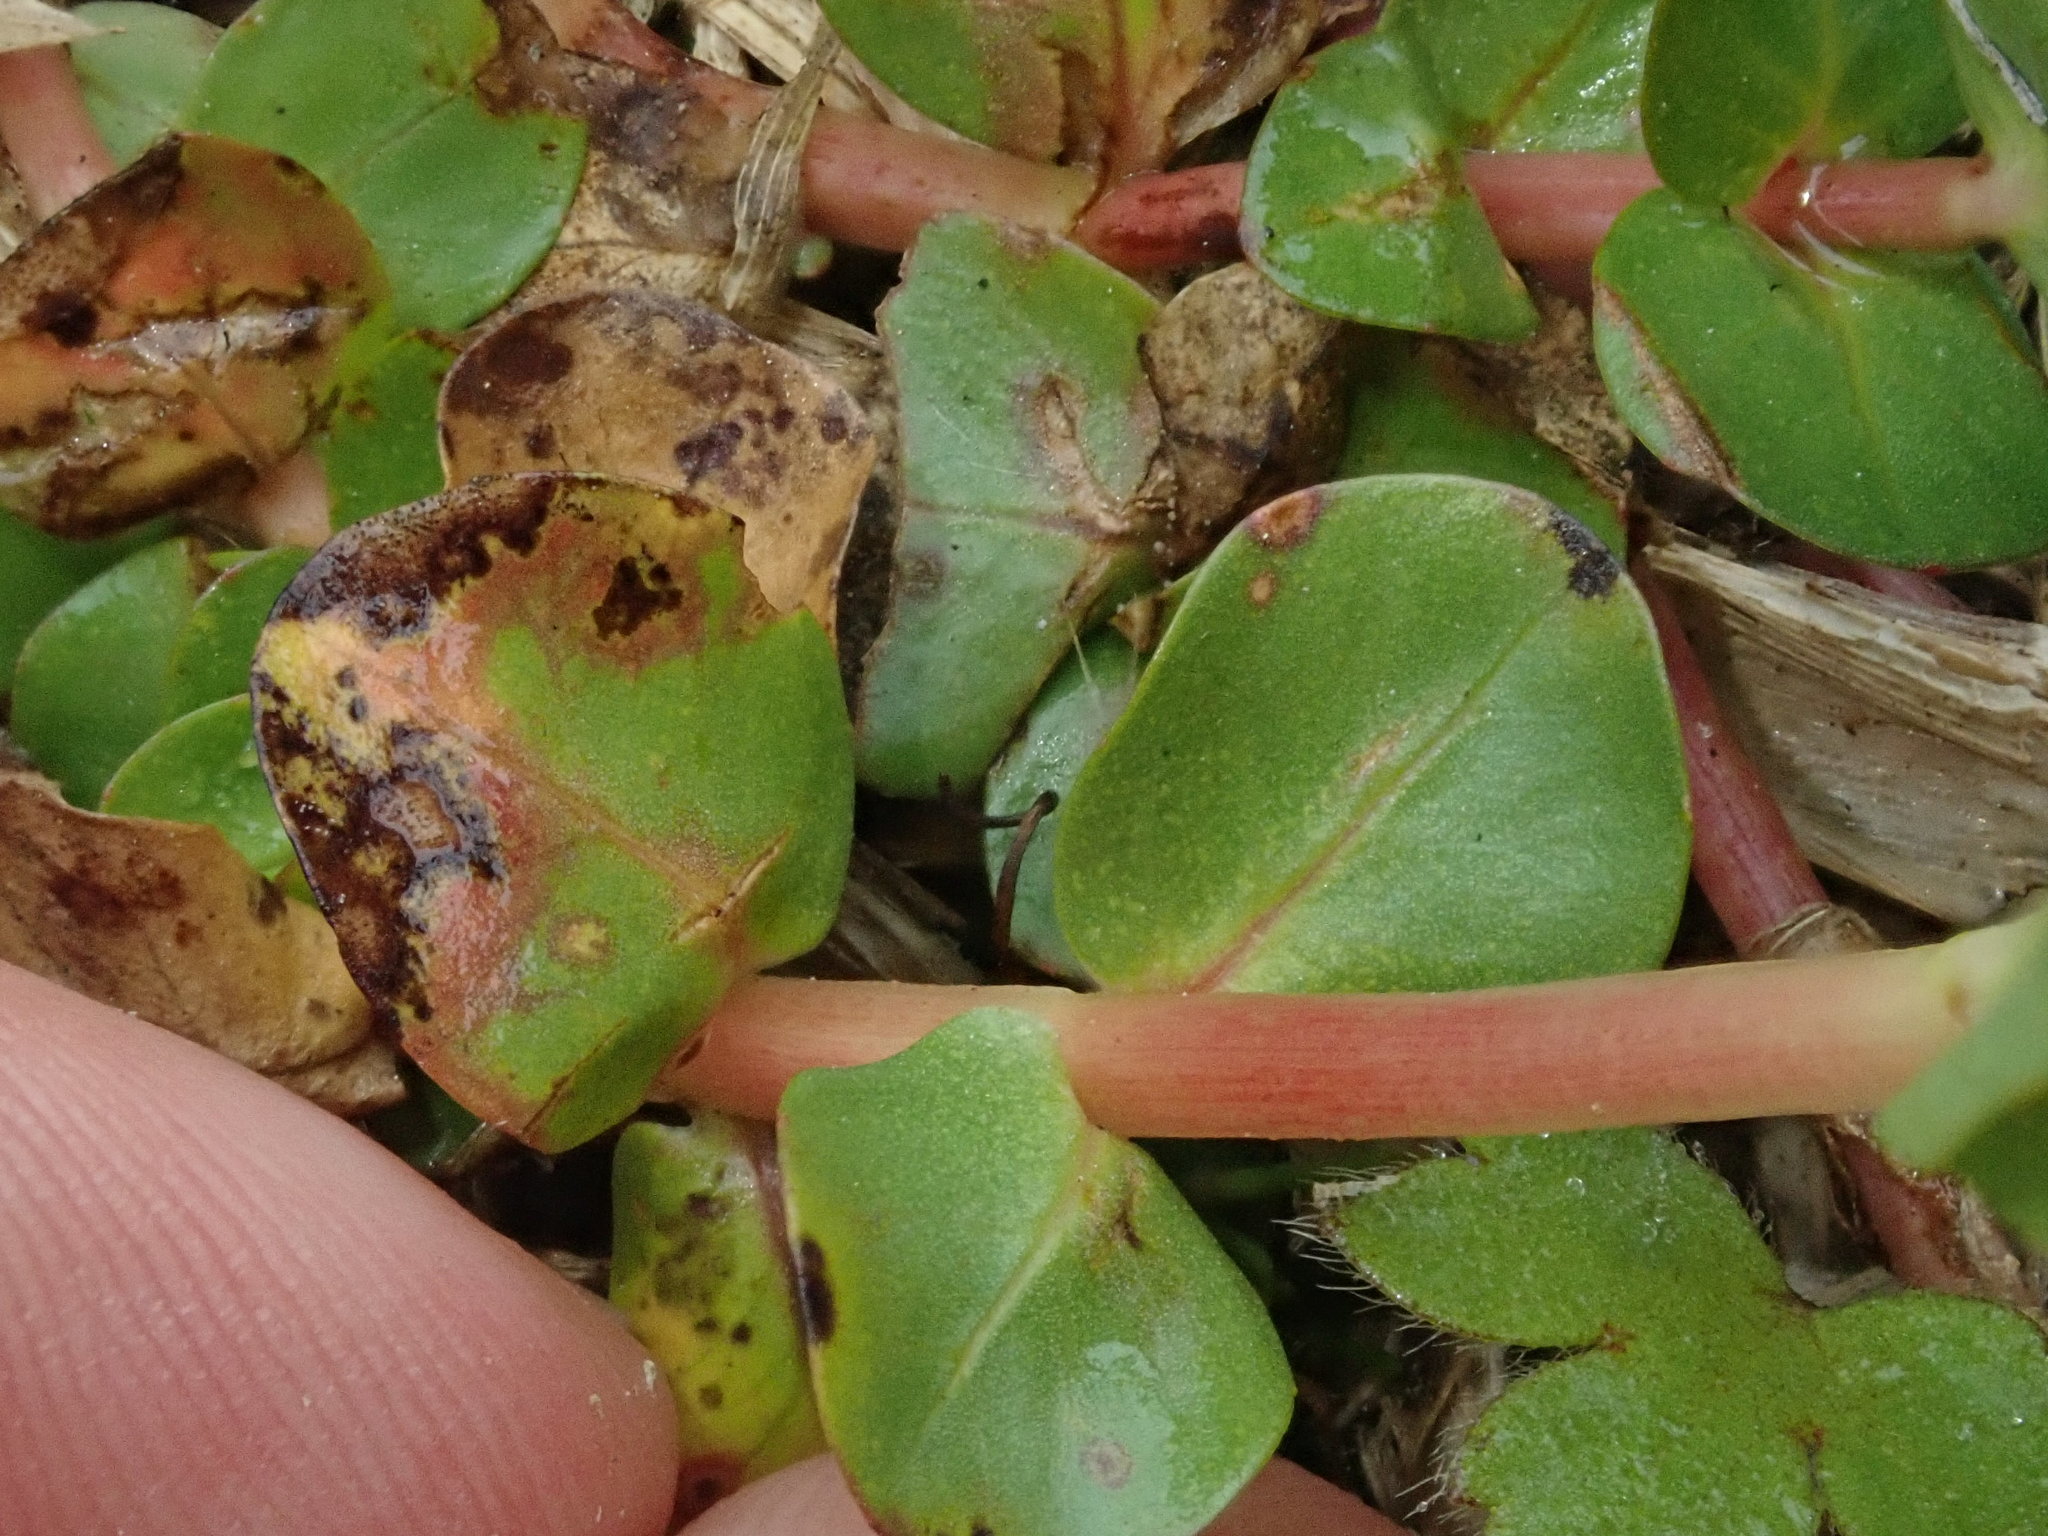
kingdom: Plantae
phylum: Tracheophyta
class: Magnoliopsida
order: Myrtales
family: Lythraceae
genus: Rotala
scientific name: Rotala rotundifolia
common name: Roundleaf toothcup
